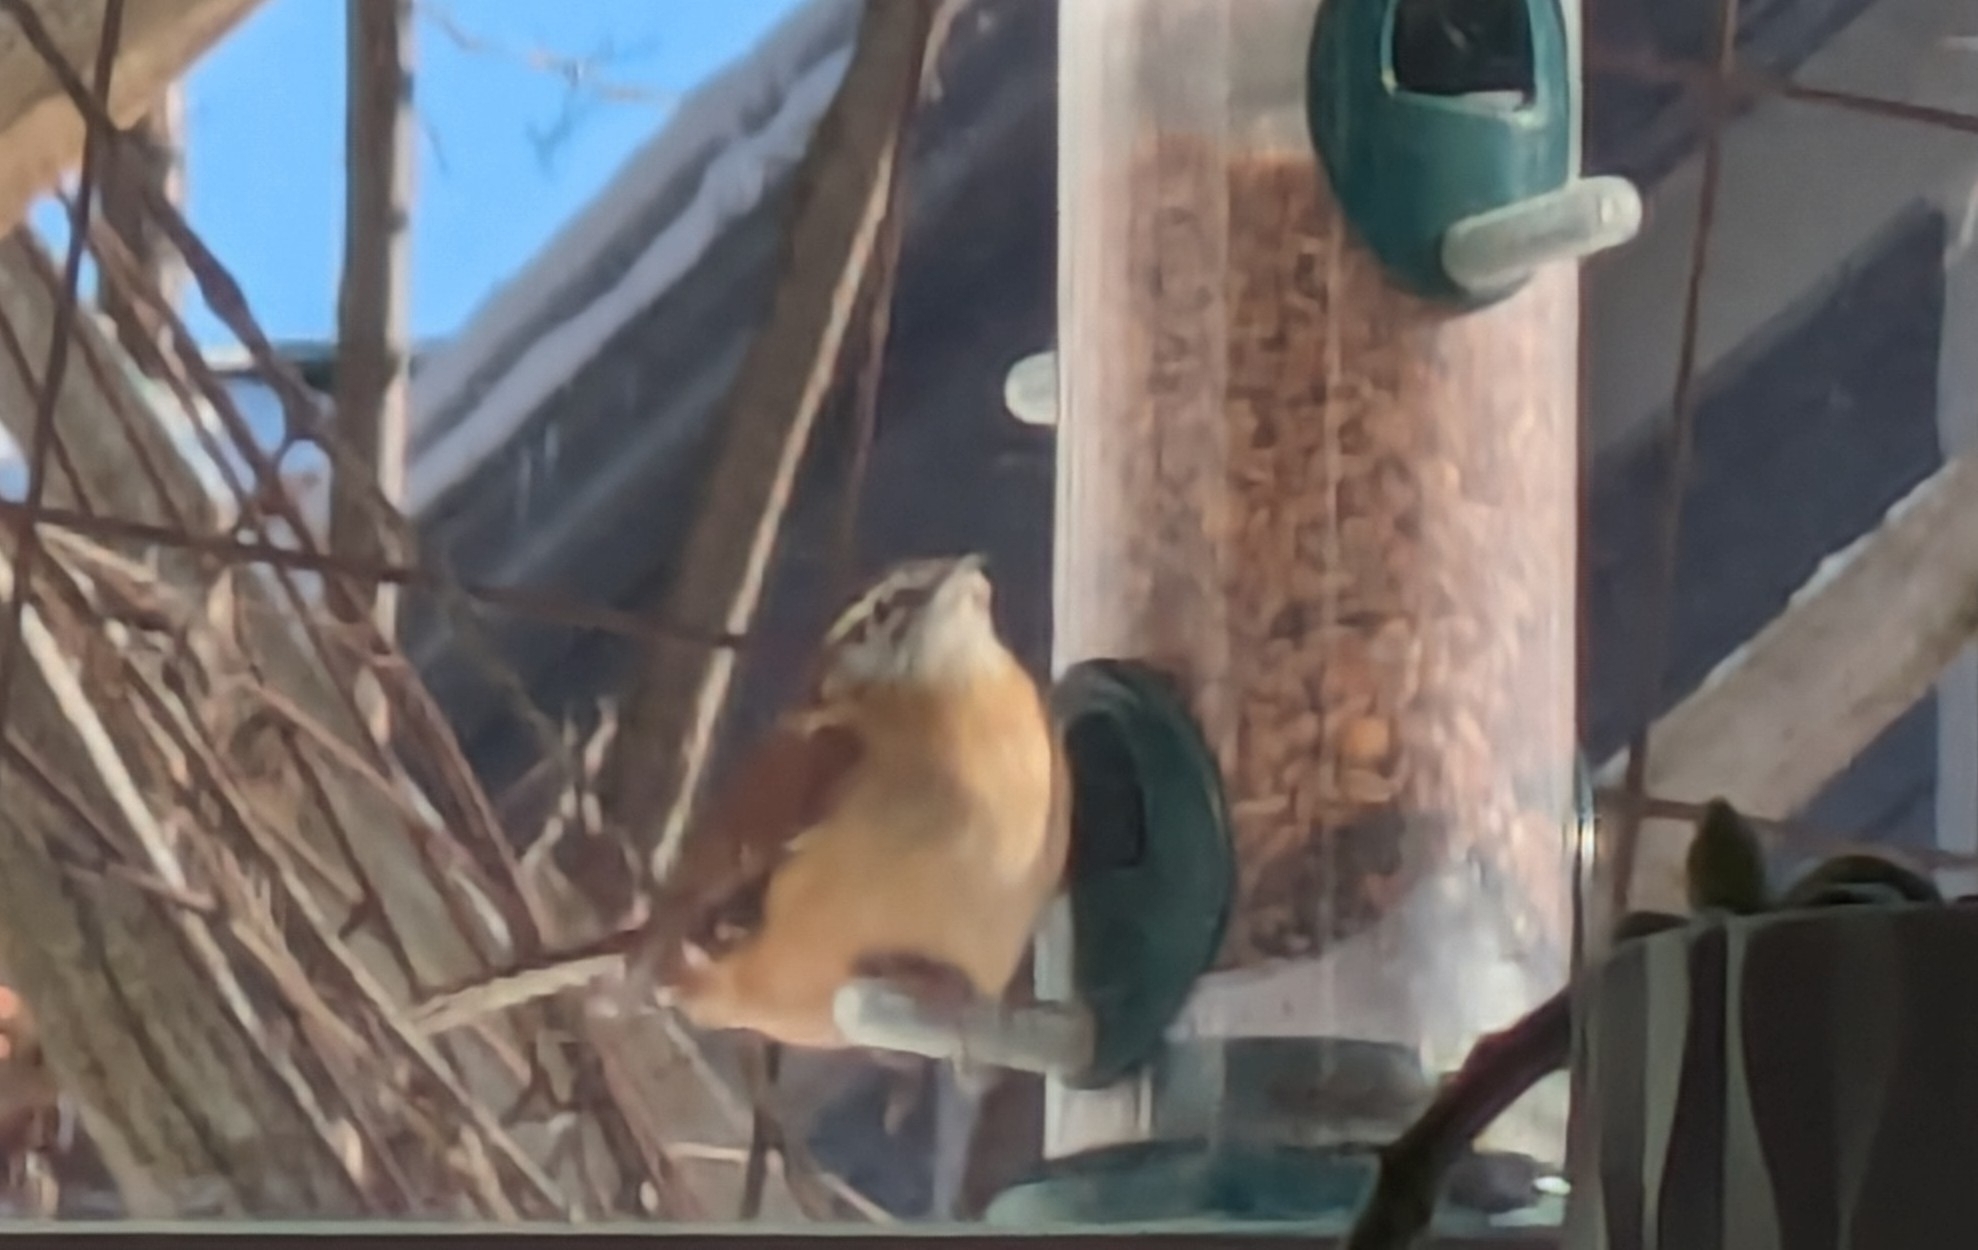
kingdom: Animalia
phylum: Chordata
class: Aves
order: Passeriformes
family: Troglodytidae
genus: Thryothorus
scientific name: Thryothorus ludovicianus
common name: Carolina wren
